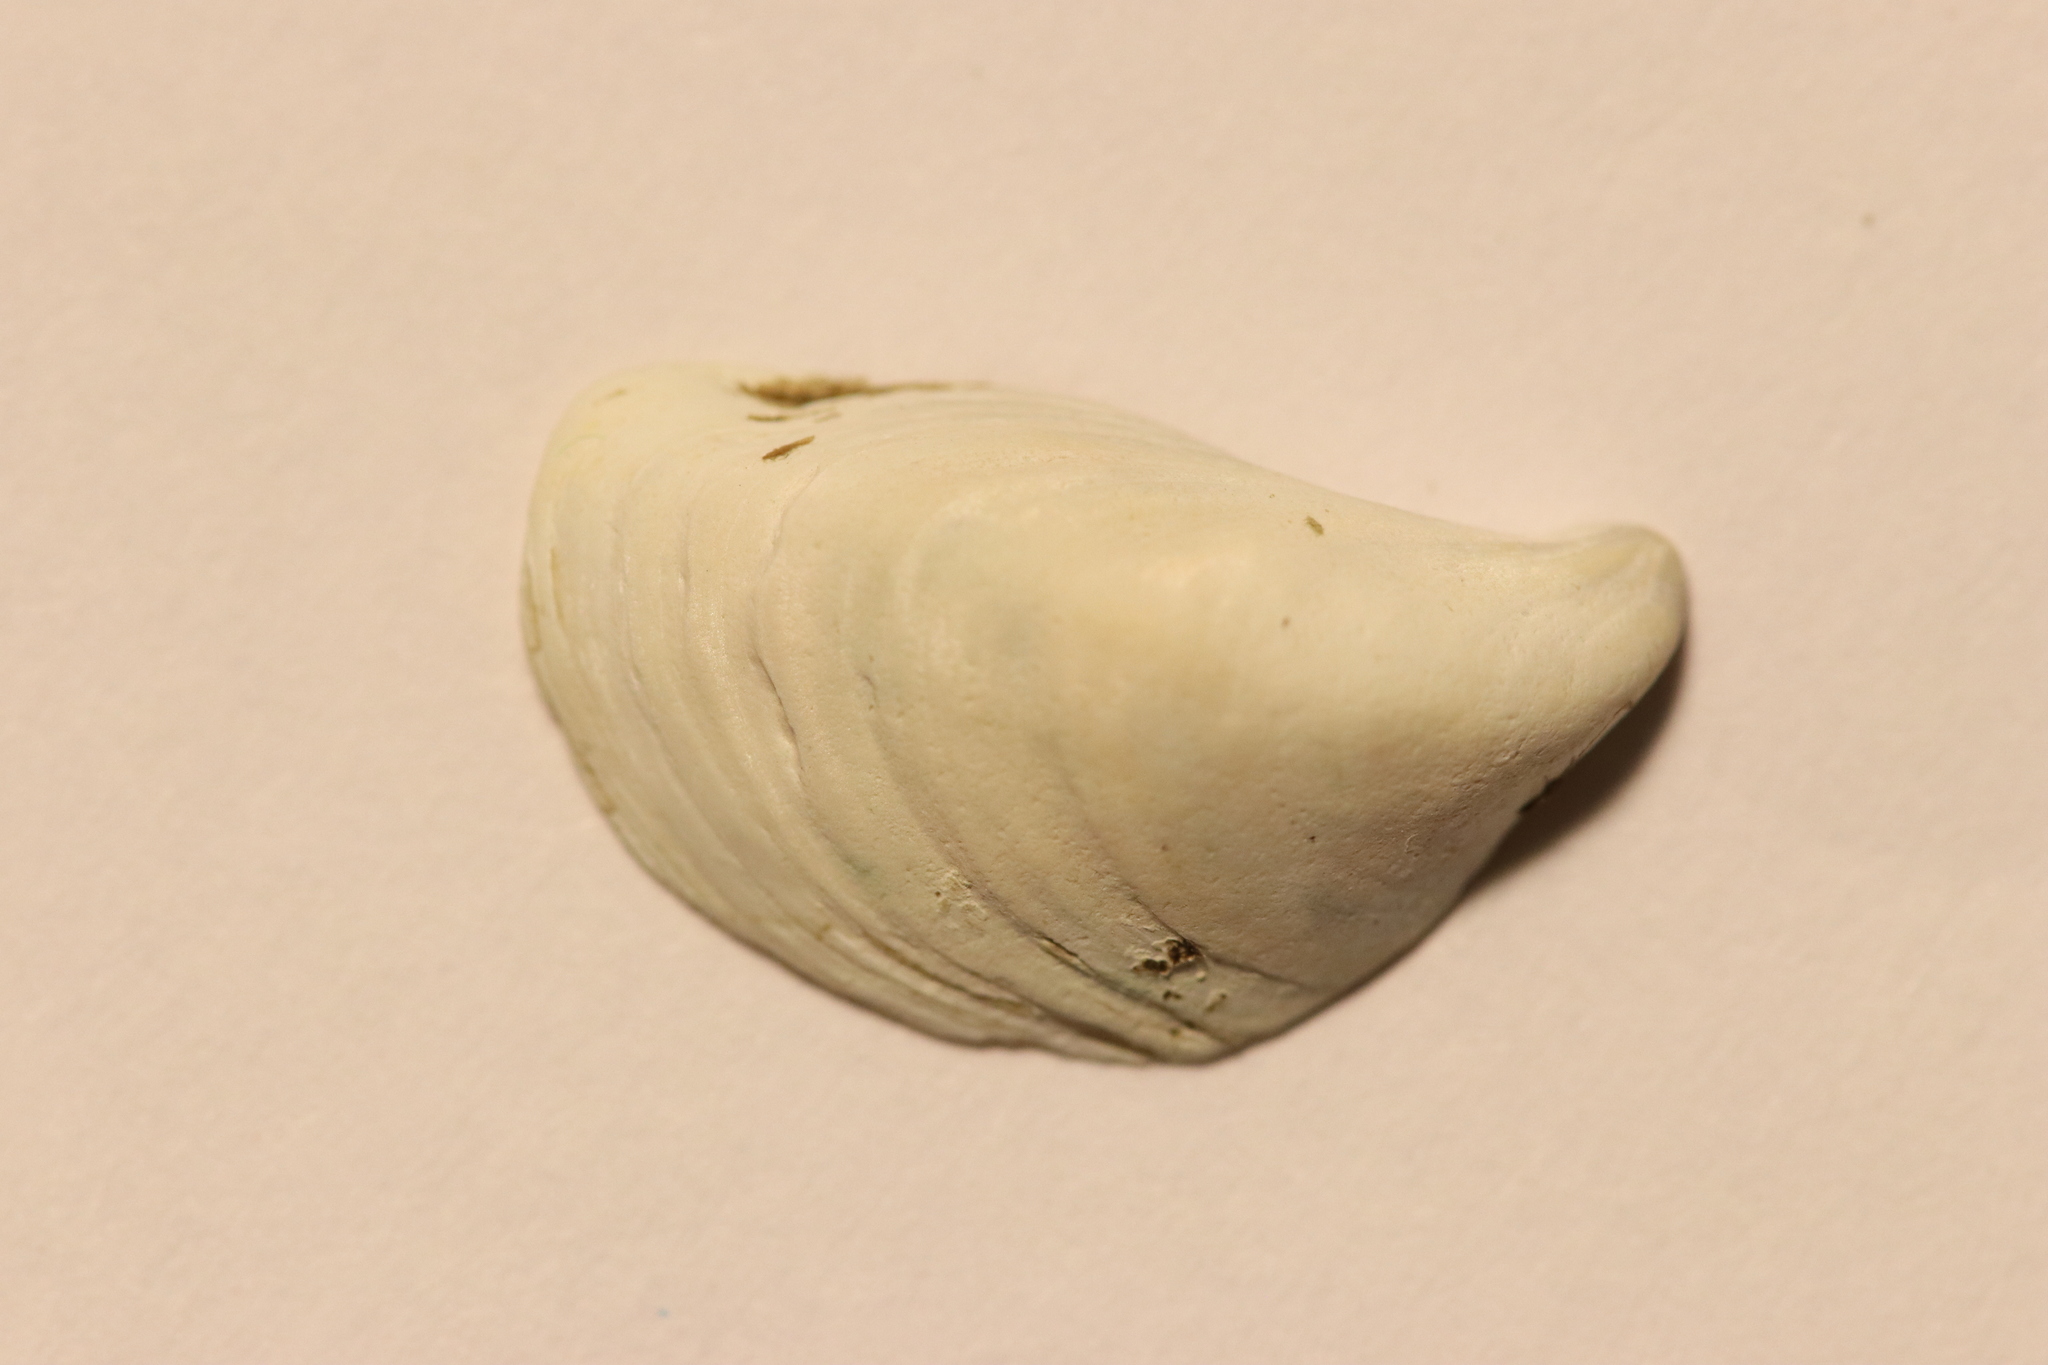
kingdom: Animalia
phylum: Mollusca
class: Bivalvia
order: Myida
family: Dreissenidae
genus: Dreissena
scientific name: Dreissena bugensis
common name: Quagga mussel
